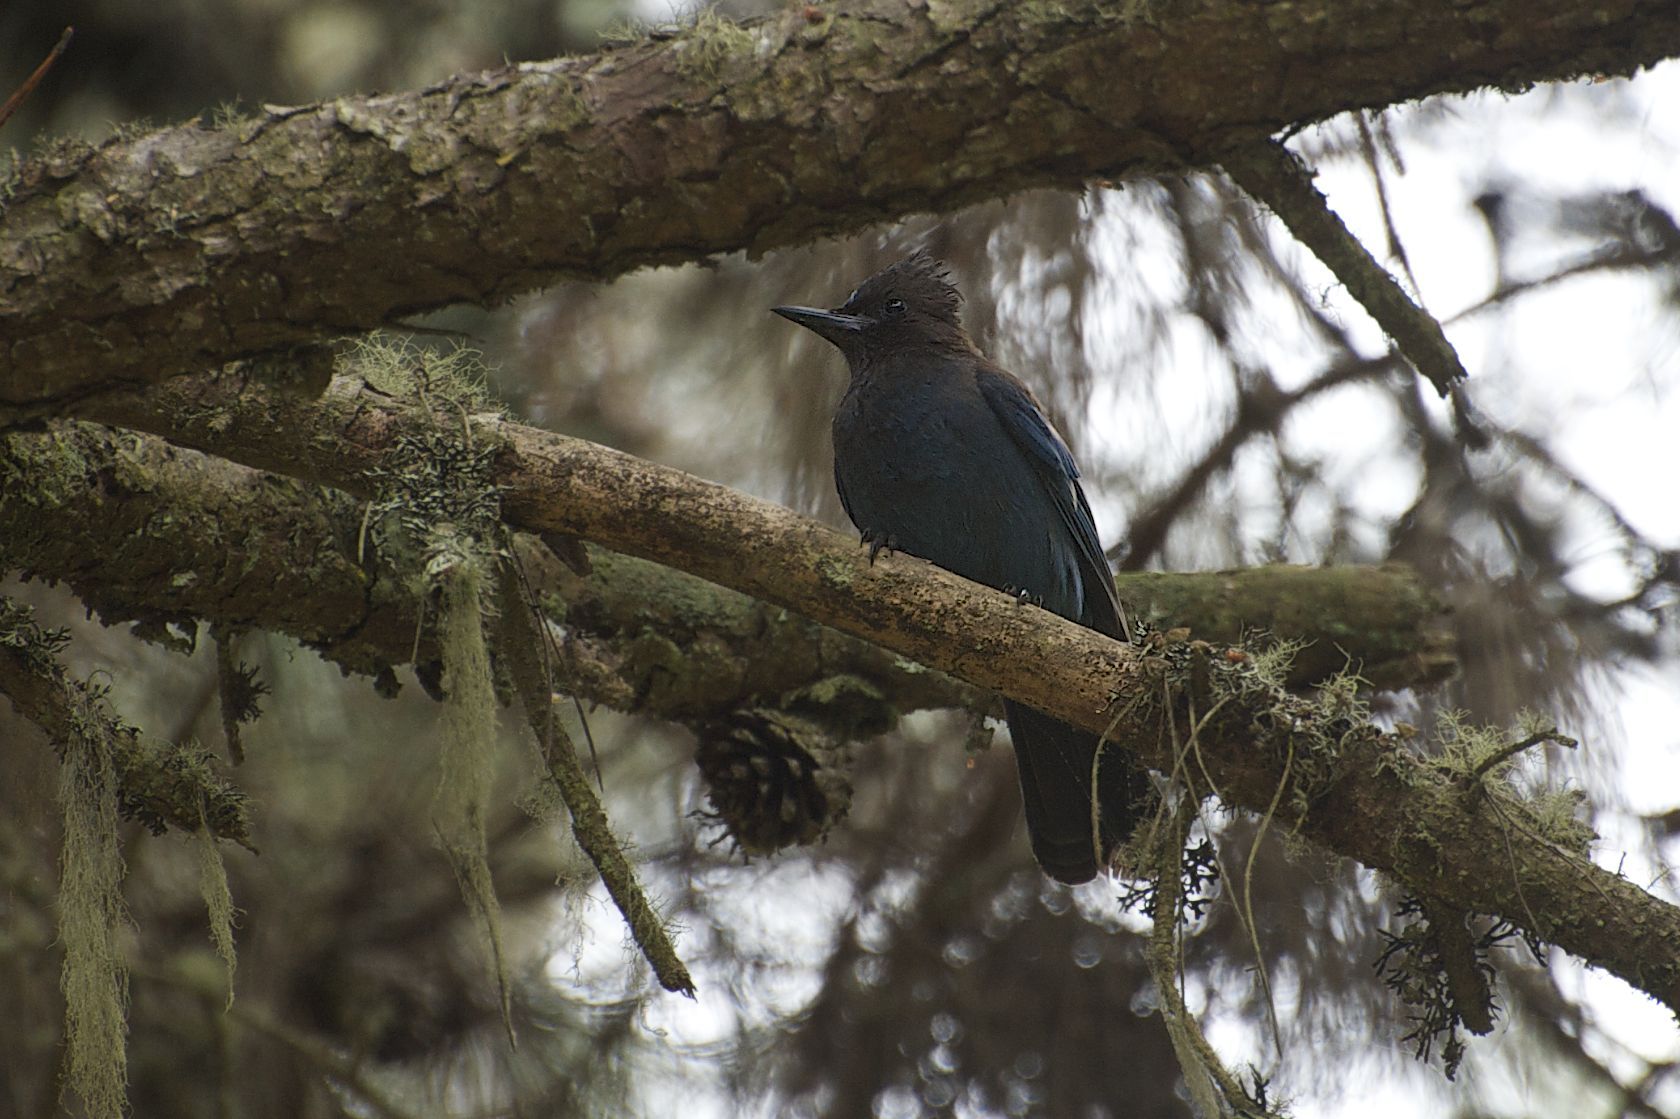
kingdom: Animalia
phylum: Chordata
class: Aves
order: Passeriformes
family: Corvidae
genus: Cyanocitta
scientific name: Cyanocitta stelleri
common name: Steller's jay
